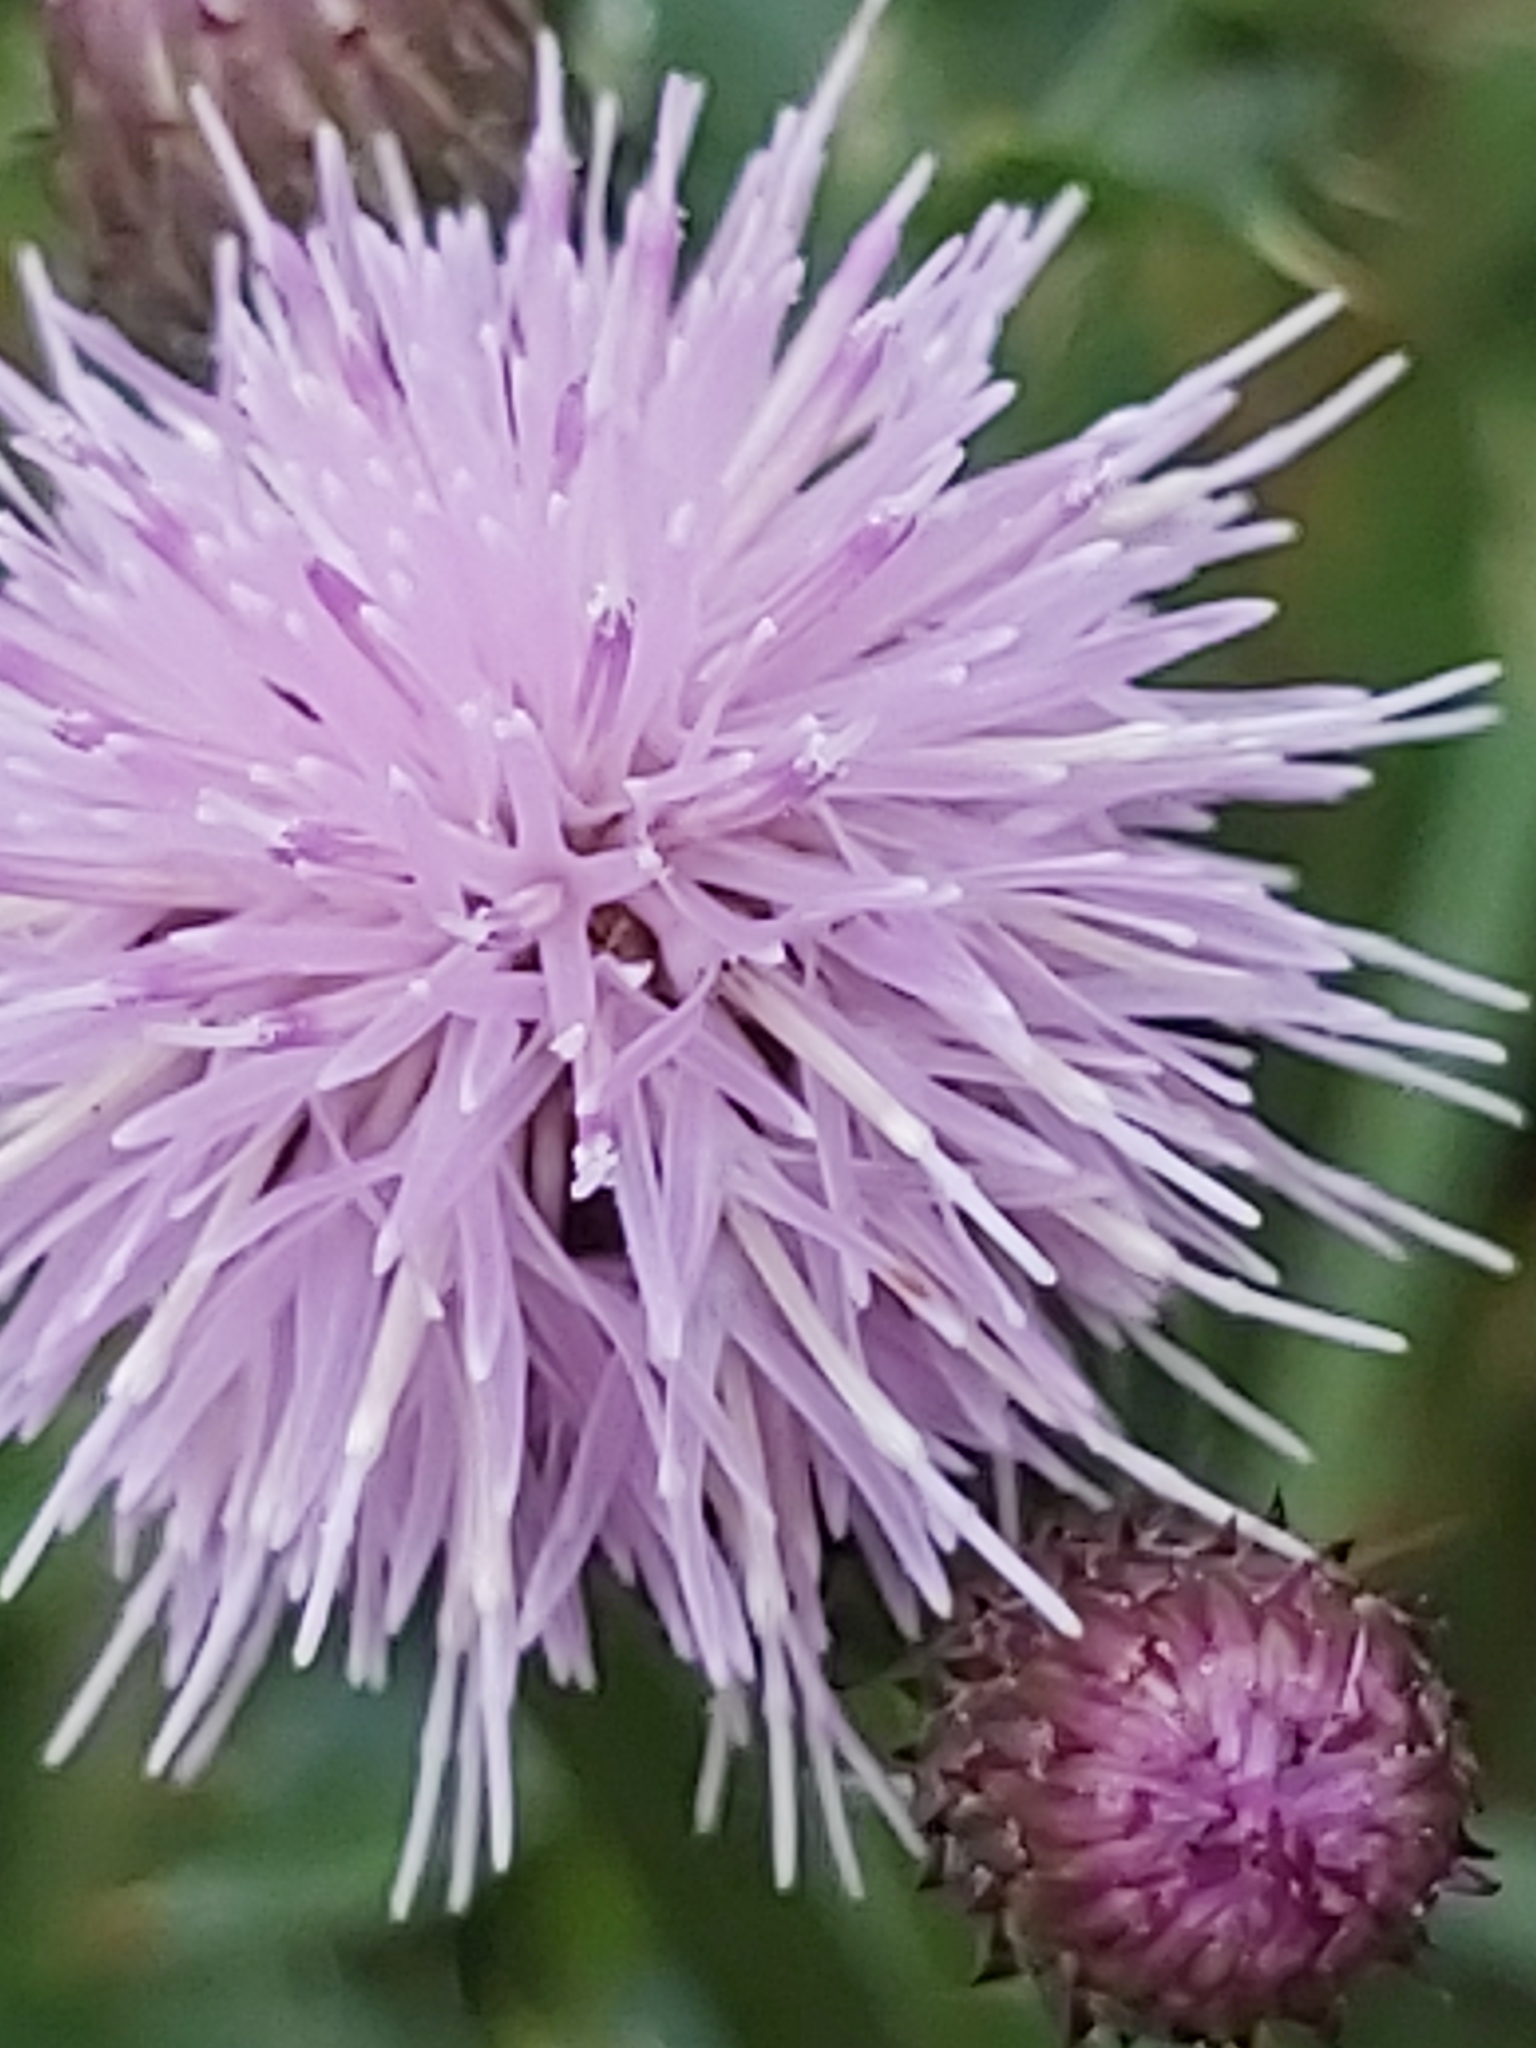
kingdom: Plantae
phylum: Tracheophyta
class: Magnoliopsida
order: Asterales
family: Asteraceae
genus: Cirsium
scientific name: Cirsium arvense
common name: Creeping thistle
